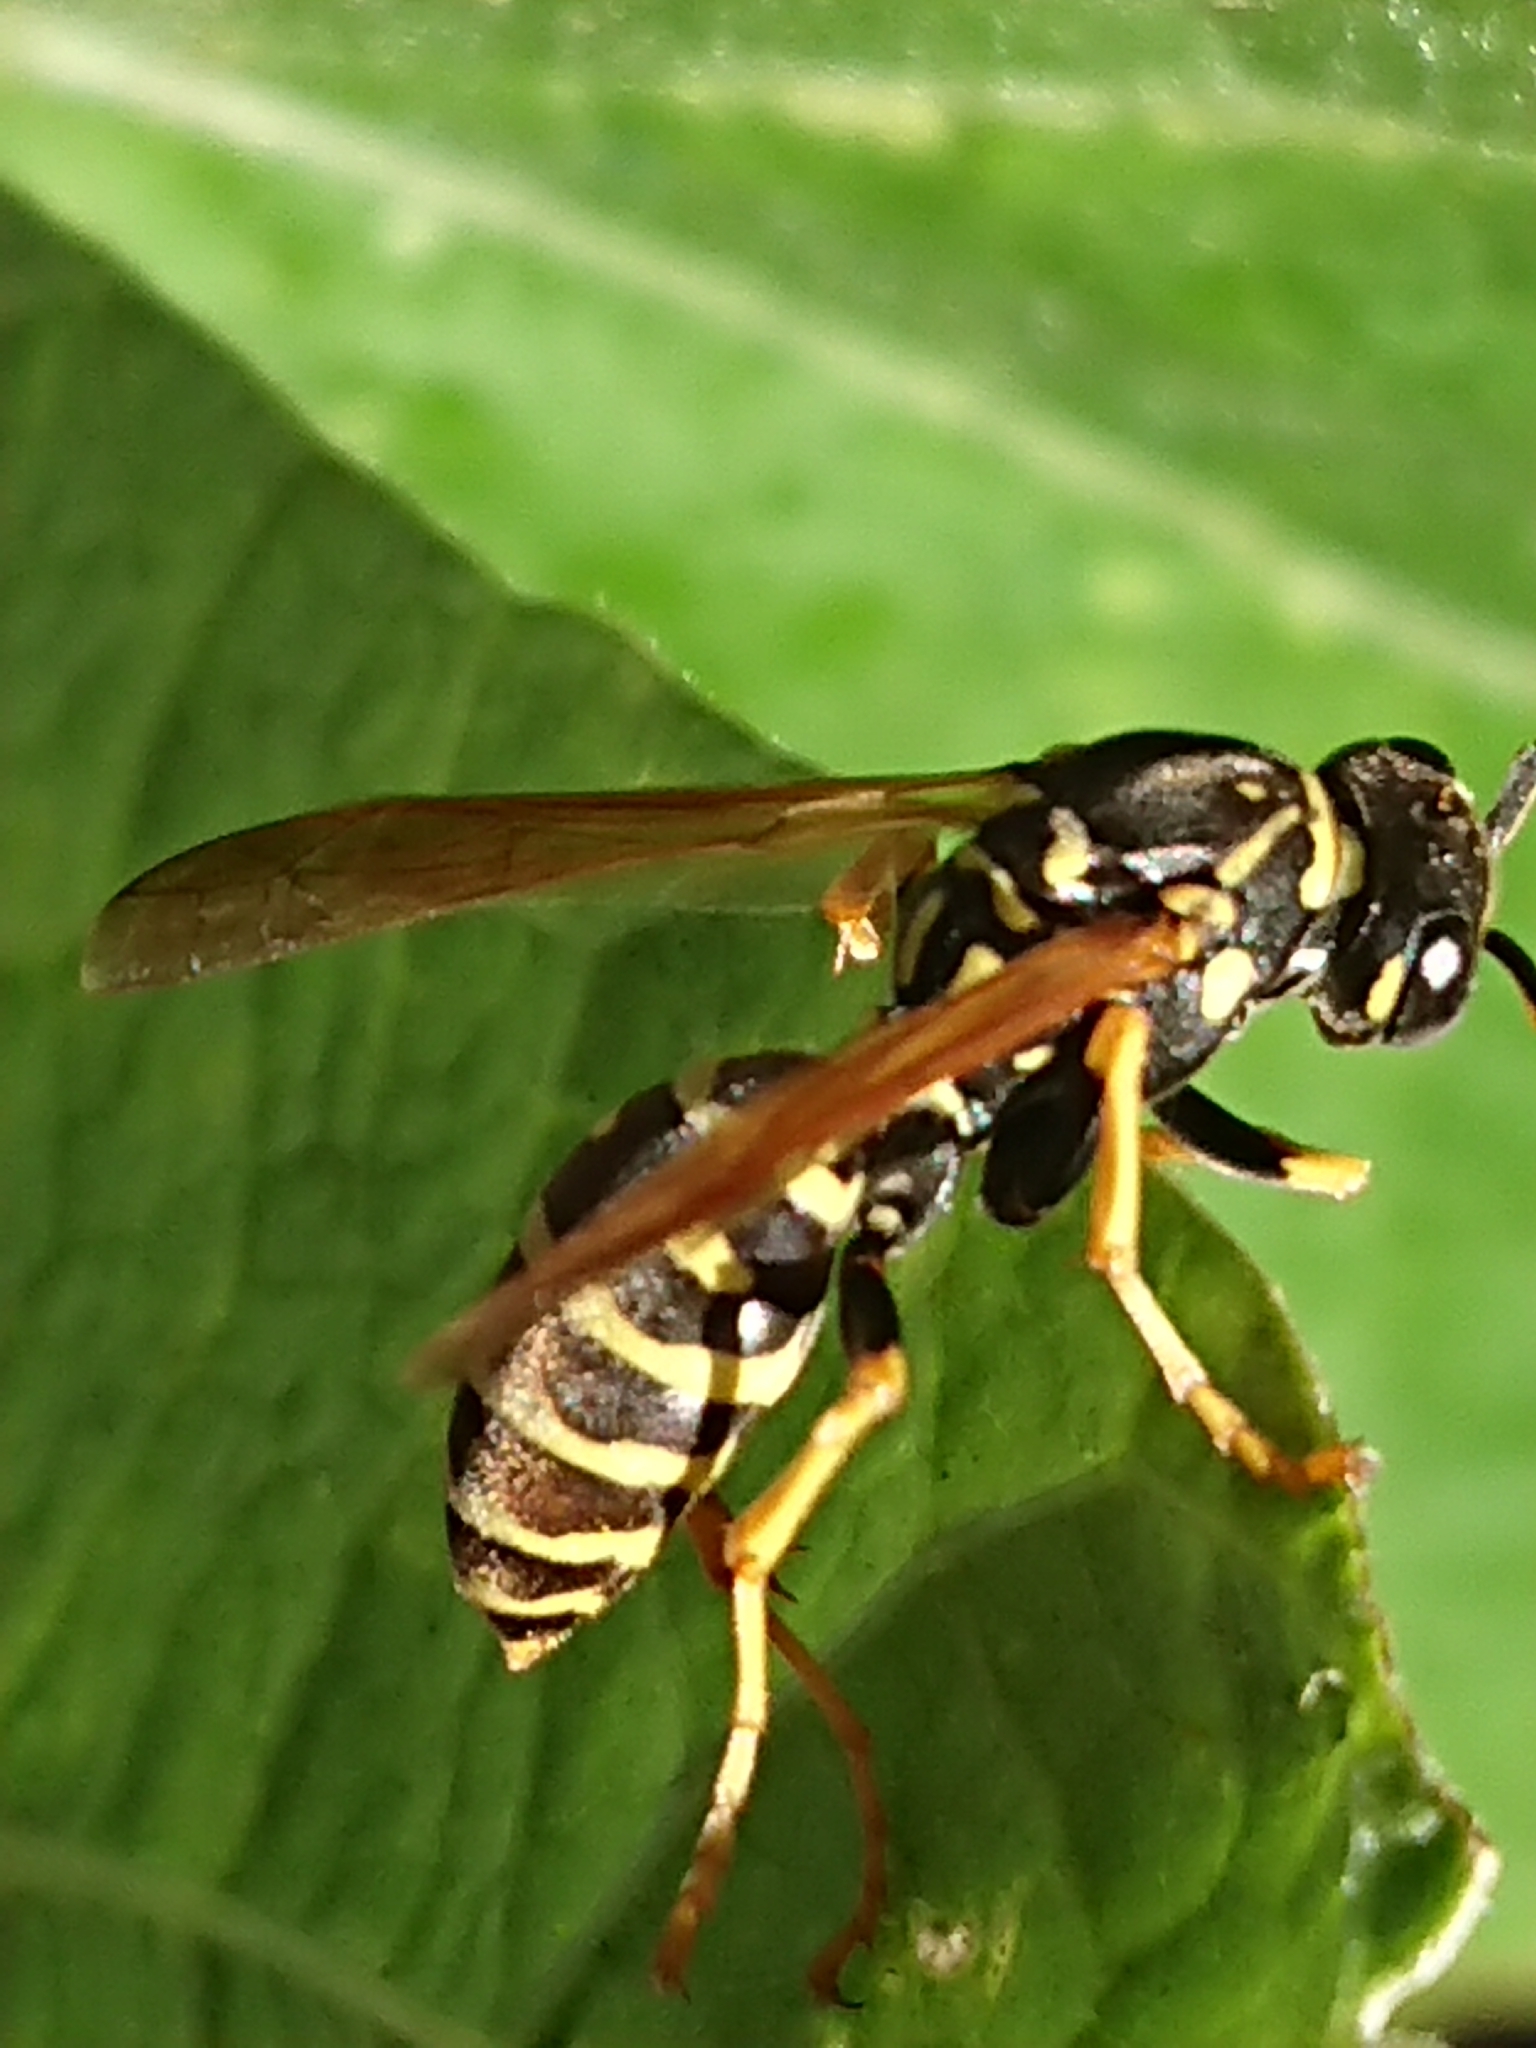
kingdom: Animalia
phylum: Arthropoda
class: Insecta
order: Hymenoptera
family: Eumenidae
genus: Polistes
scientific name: Polistes dominula
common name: Paper wasp
